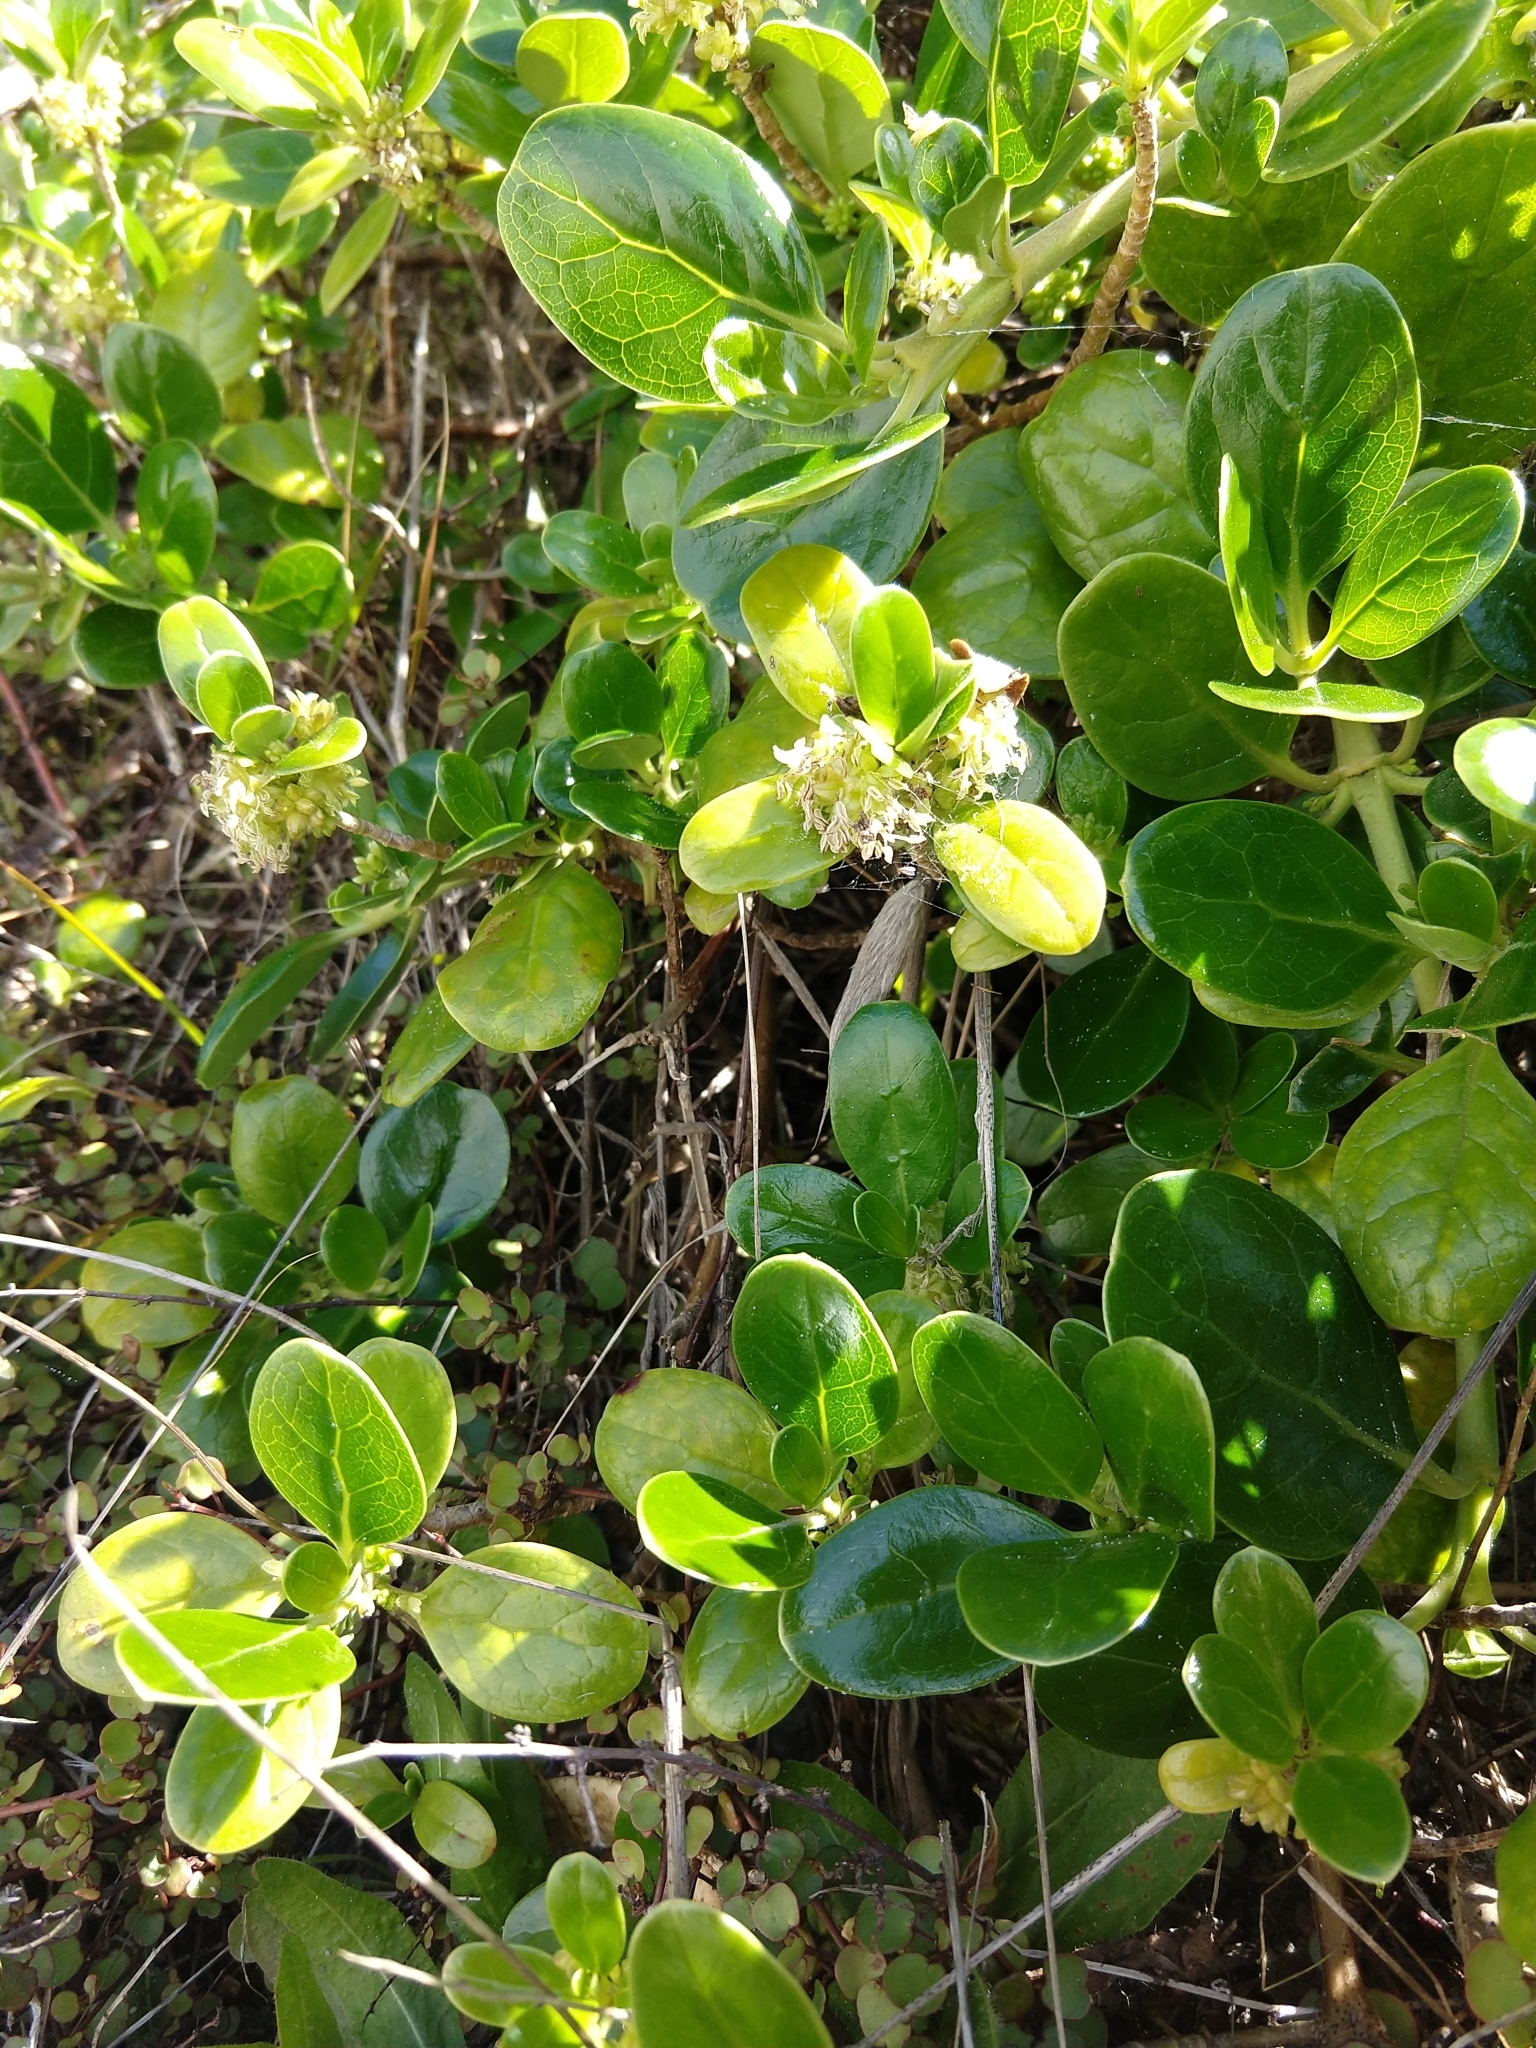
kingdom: Plantae
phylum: Tracheophyta
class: Magnoliopsida
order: Gentianales
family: Rubiaceae
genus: Coprosma
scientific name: Coprosma repens
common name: Tree bedstraw
